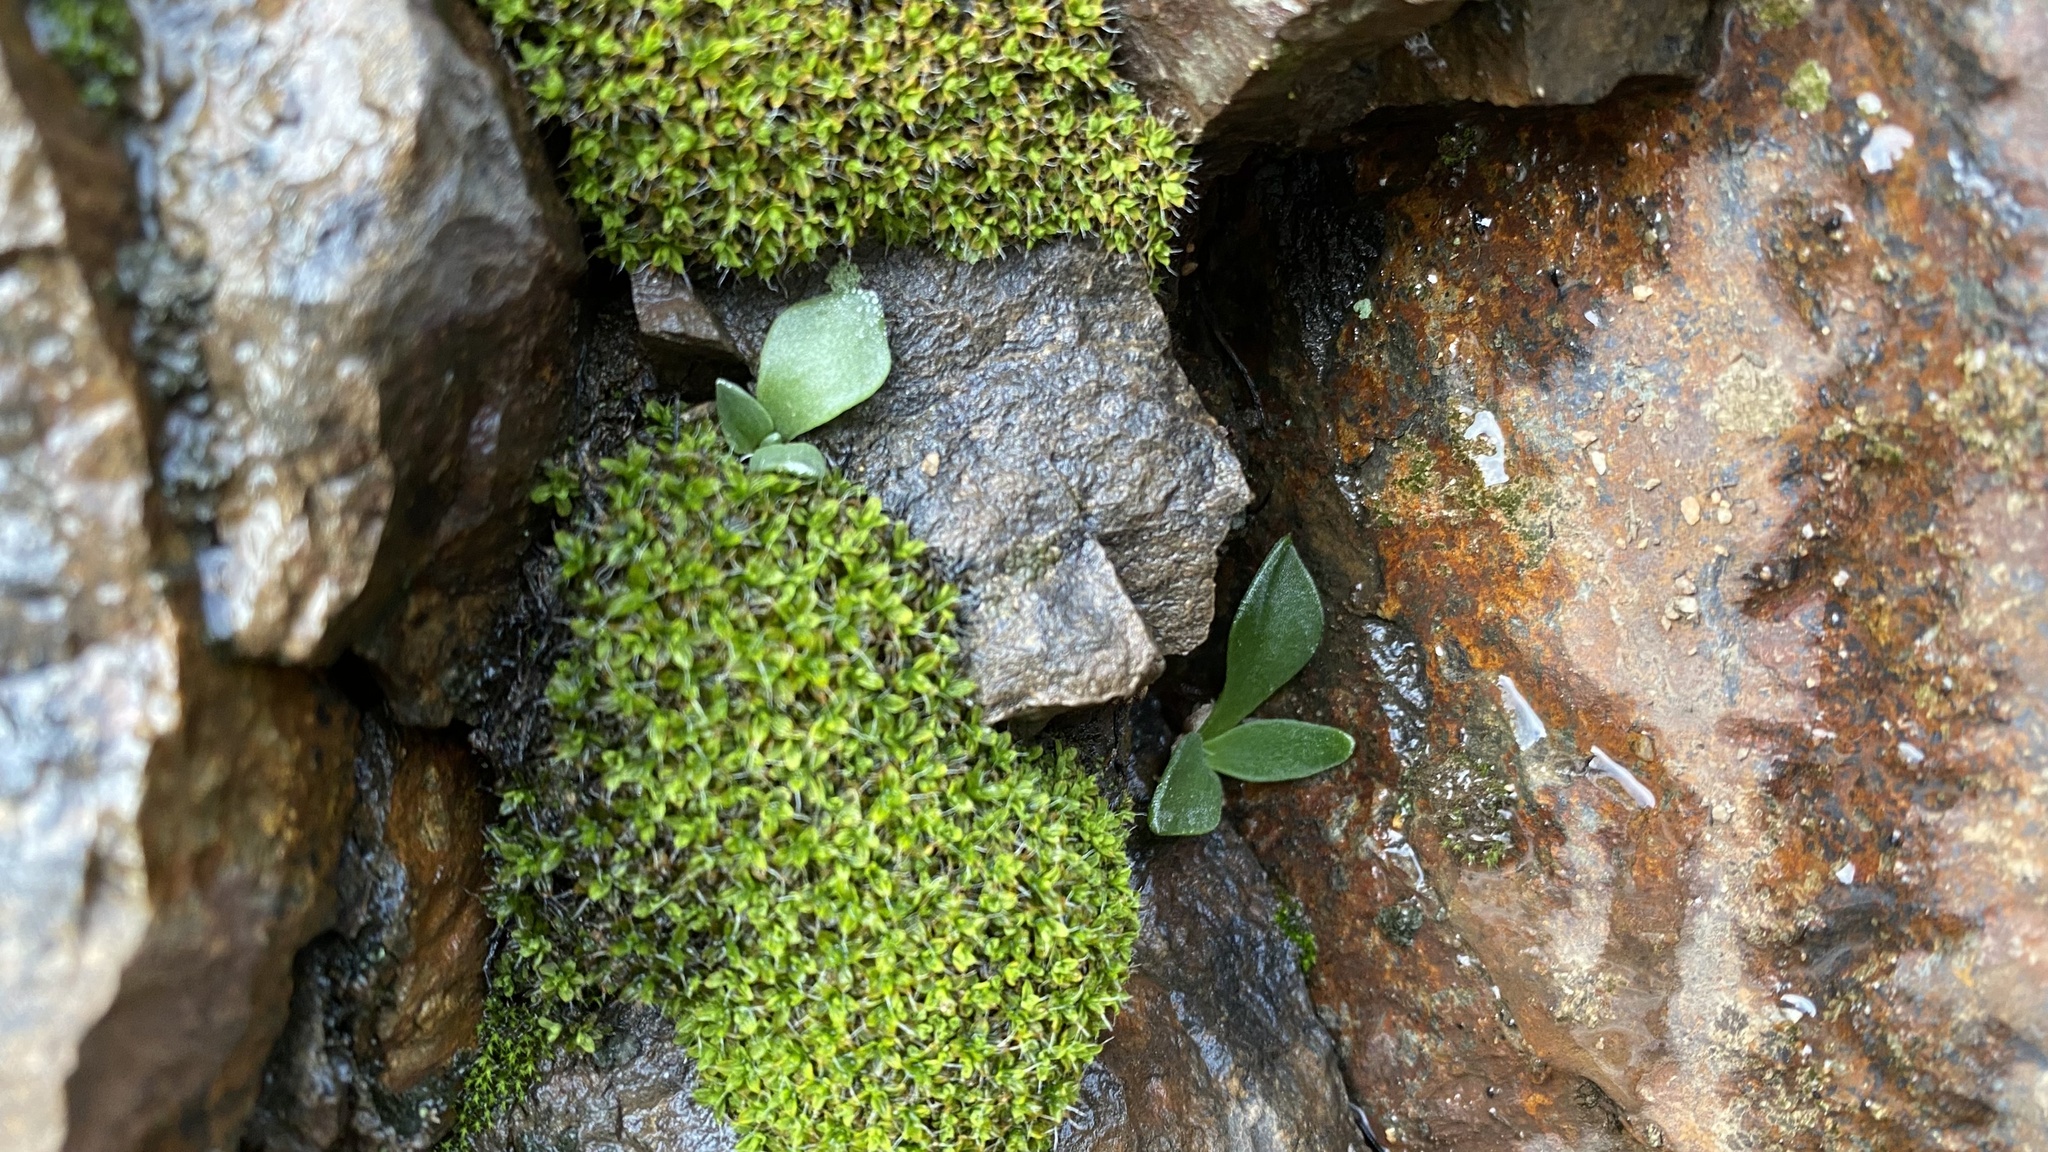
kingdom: Plantae
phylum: Tracheophyta
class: Magnoliopsida
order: Saxifragales
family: Crassulaceae
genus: Dudleya
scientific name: Dudleya cymosa
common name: Canyon dudleya
